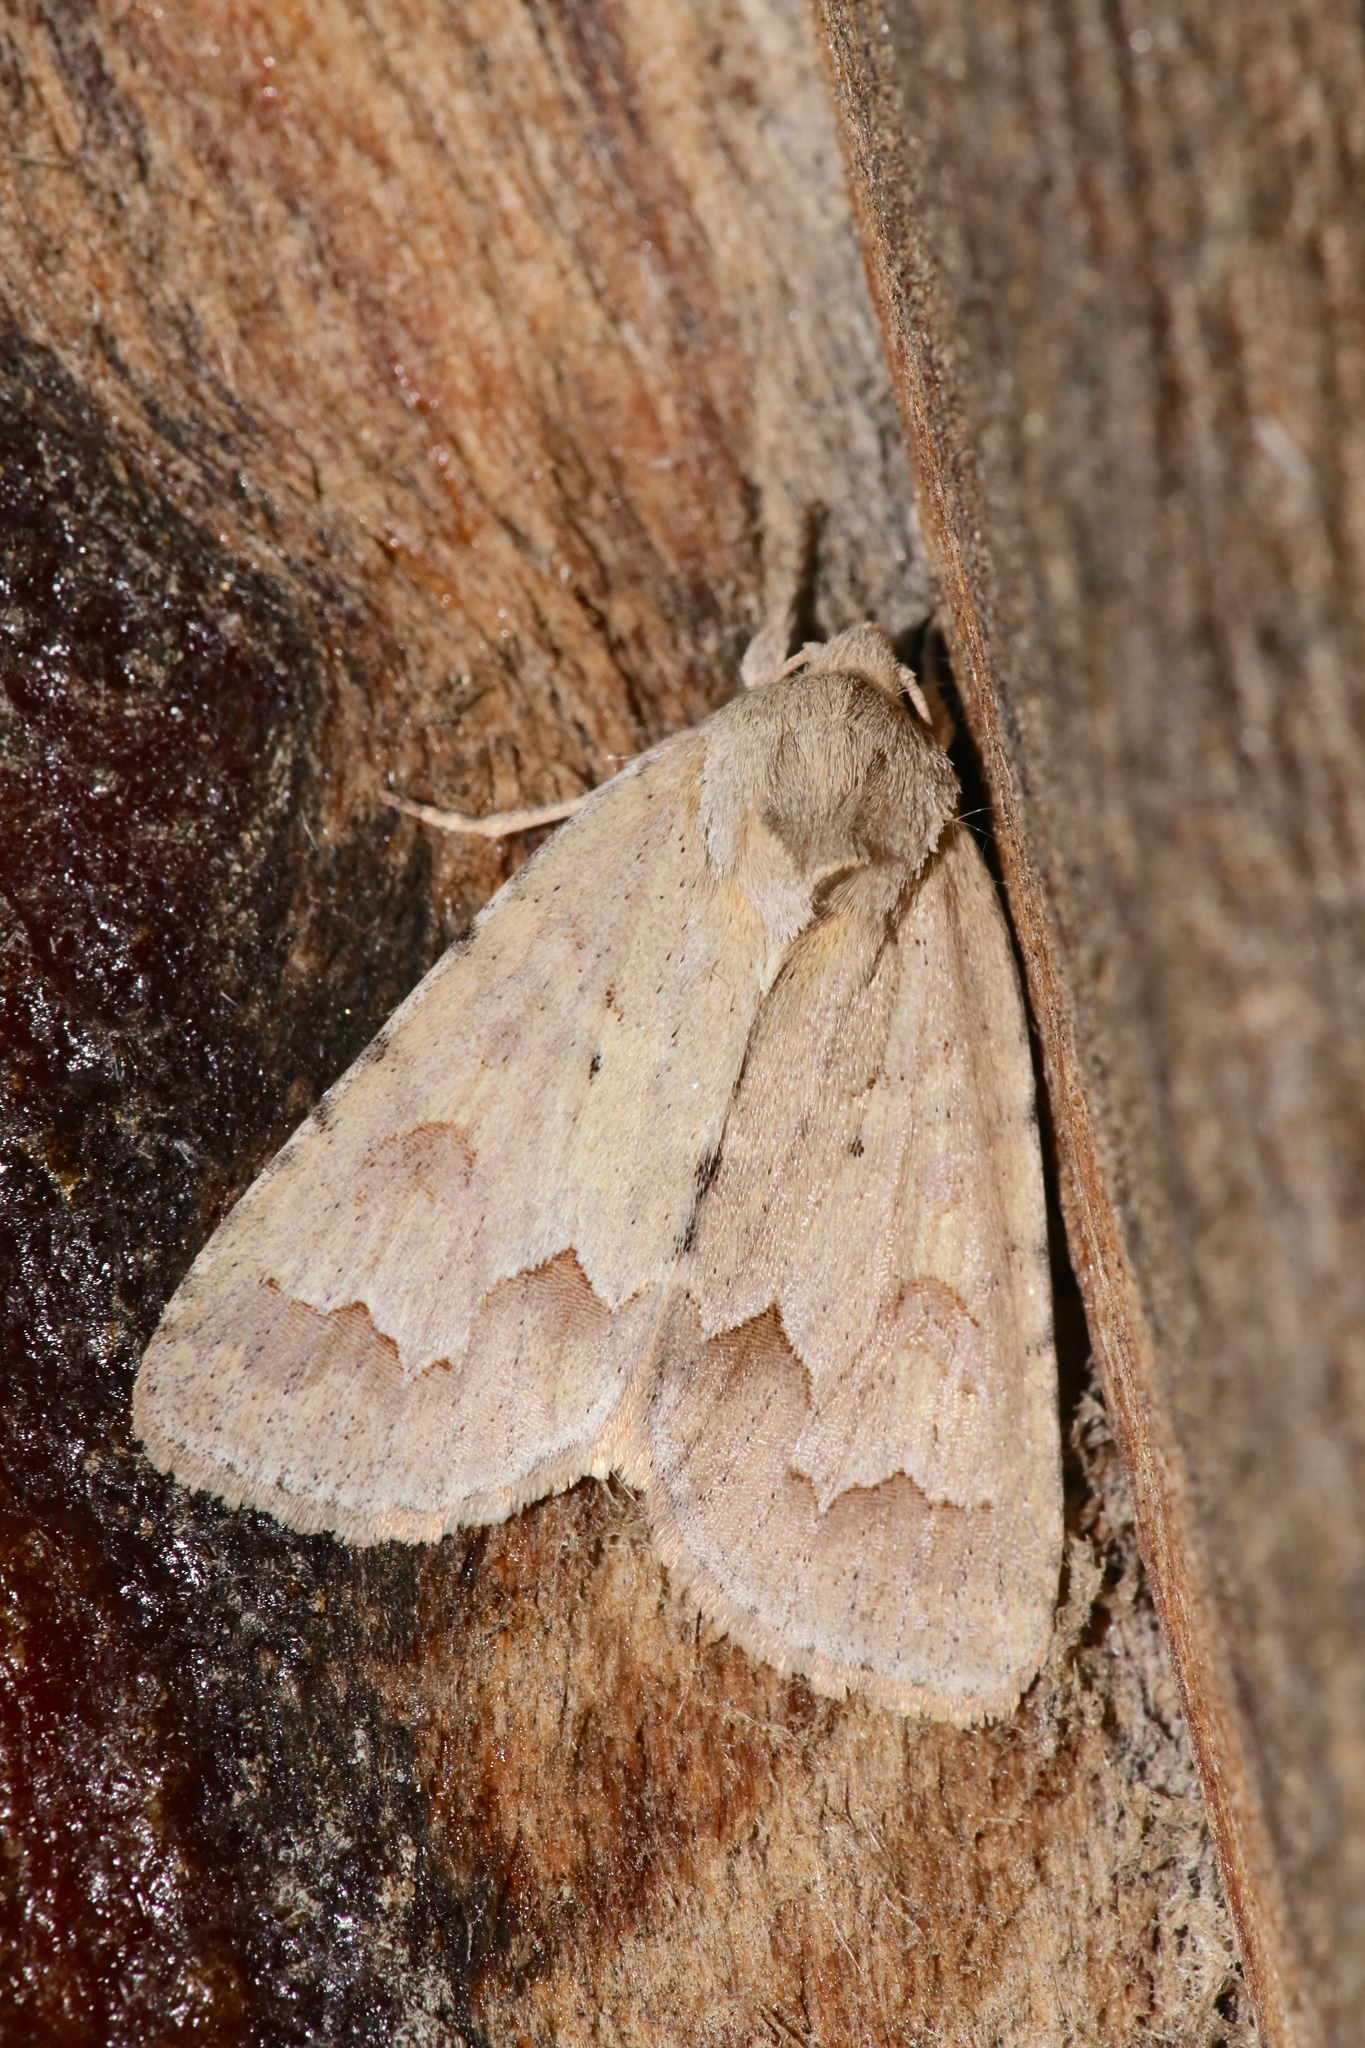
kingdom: Animalia
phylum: Arthropoda
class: Insecta
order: Lepidoptera
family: Noctuidae
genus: Acronicta
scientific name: Acronicta betulae
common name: Birch dagger moth
